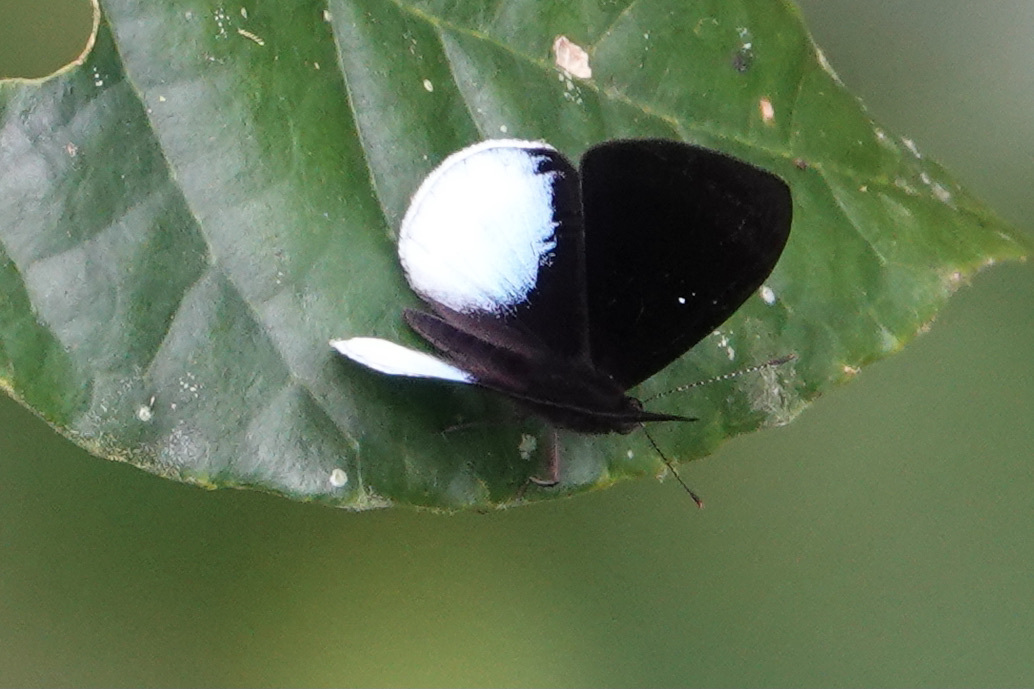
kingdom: Animalia
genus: Mesosemia
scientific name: Mesosemia zanoa
